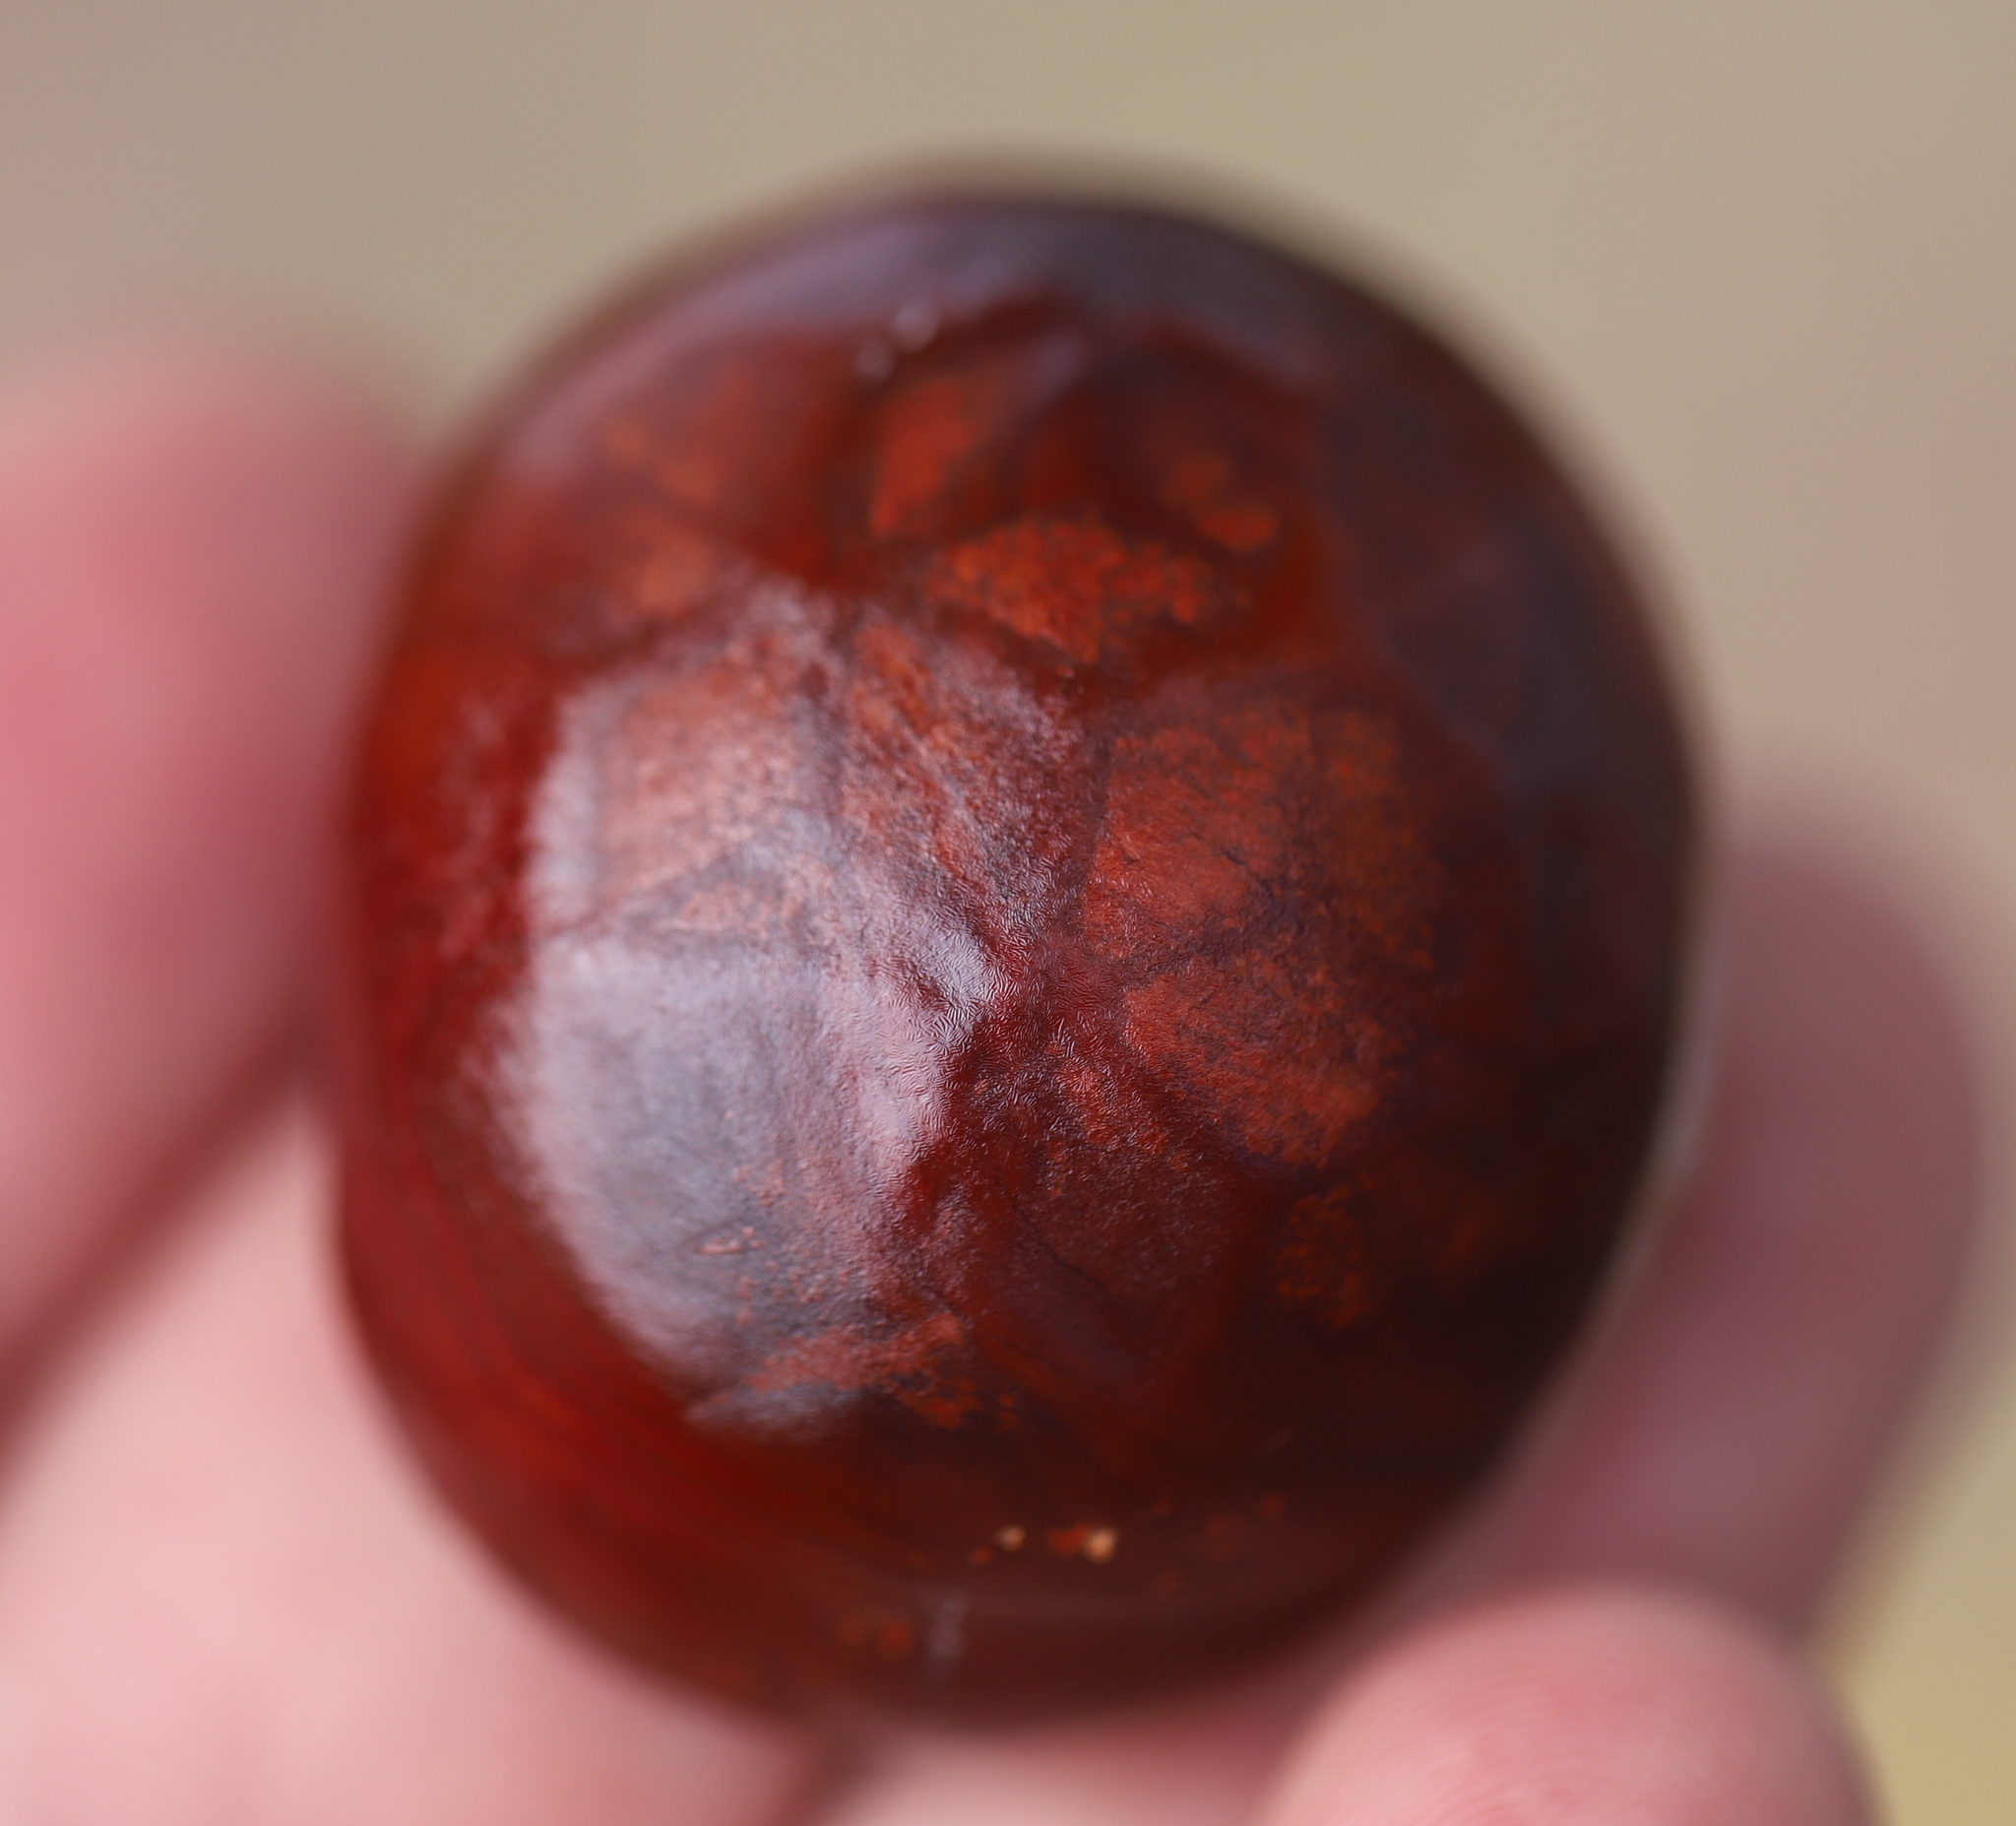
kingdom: Plantae
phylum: Tracheophyta
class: Magnoliopsida
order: Sapindales
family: Sapindaceae
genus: Aesculus
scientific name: Aesculus hippocastanum
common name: Horse-chestnut
